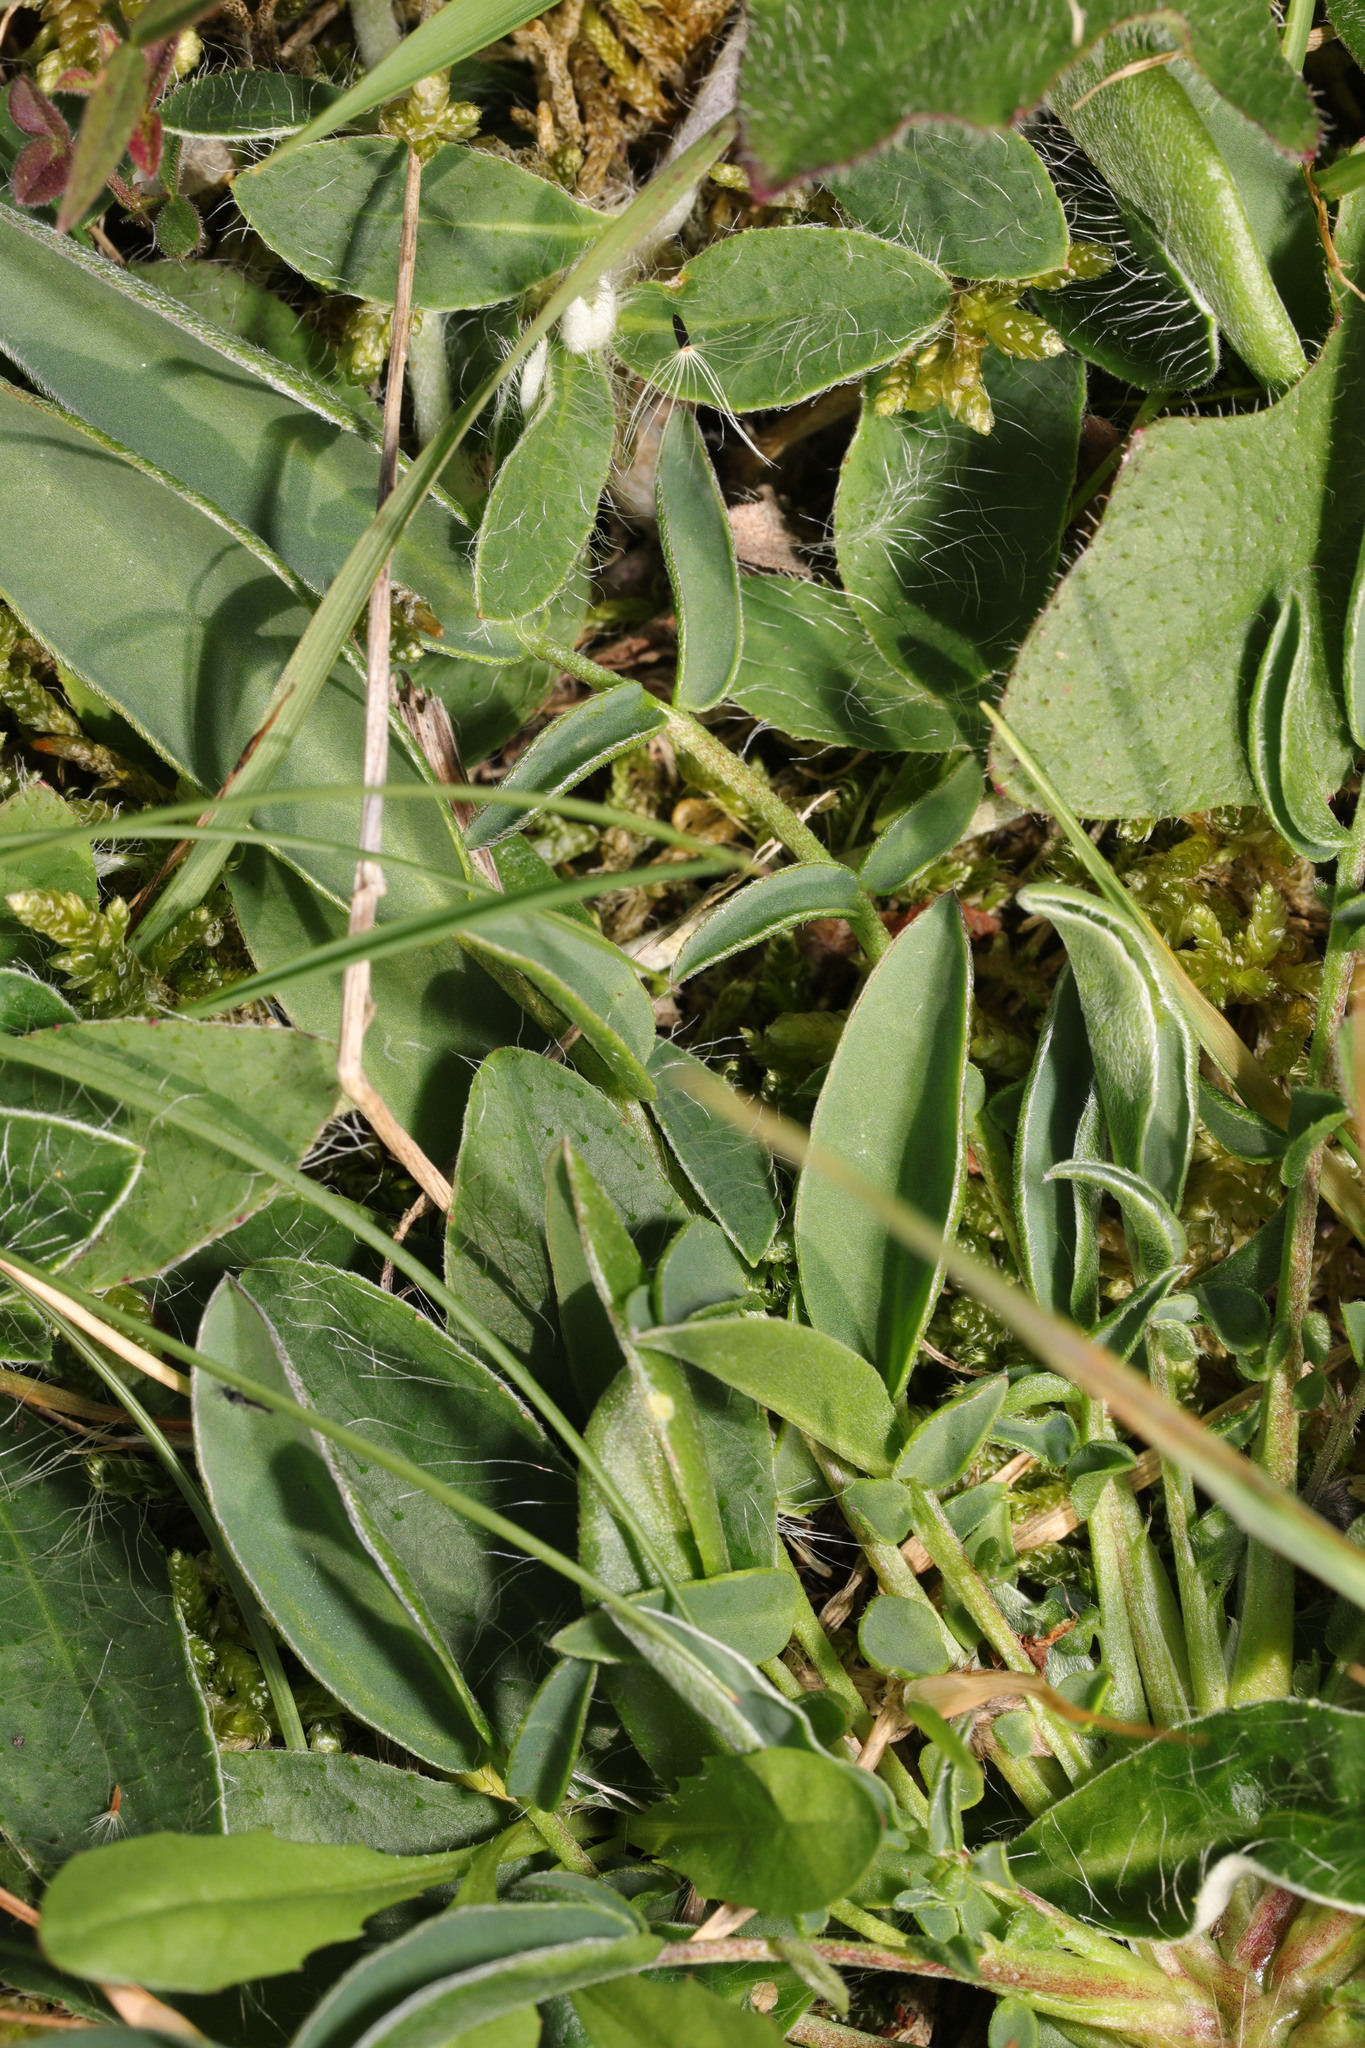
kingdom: Plantae
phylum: Tracheophyta
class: Magnoliopsida
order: Asterales
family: Asteraceae
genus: Pilosella
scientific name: Pilosella officinarum
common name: Mouse-ear hawkweed
